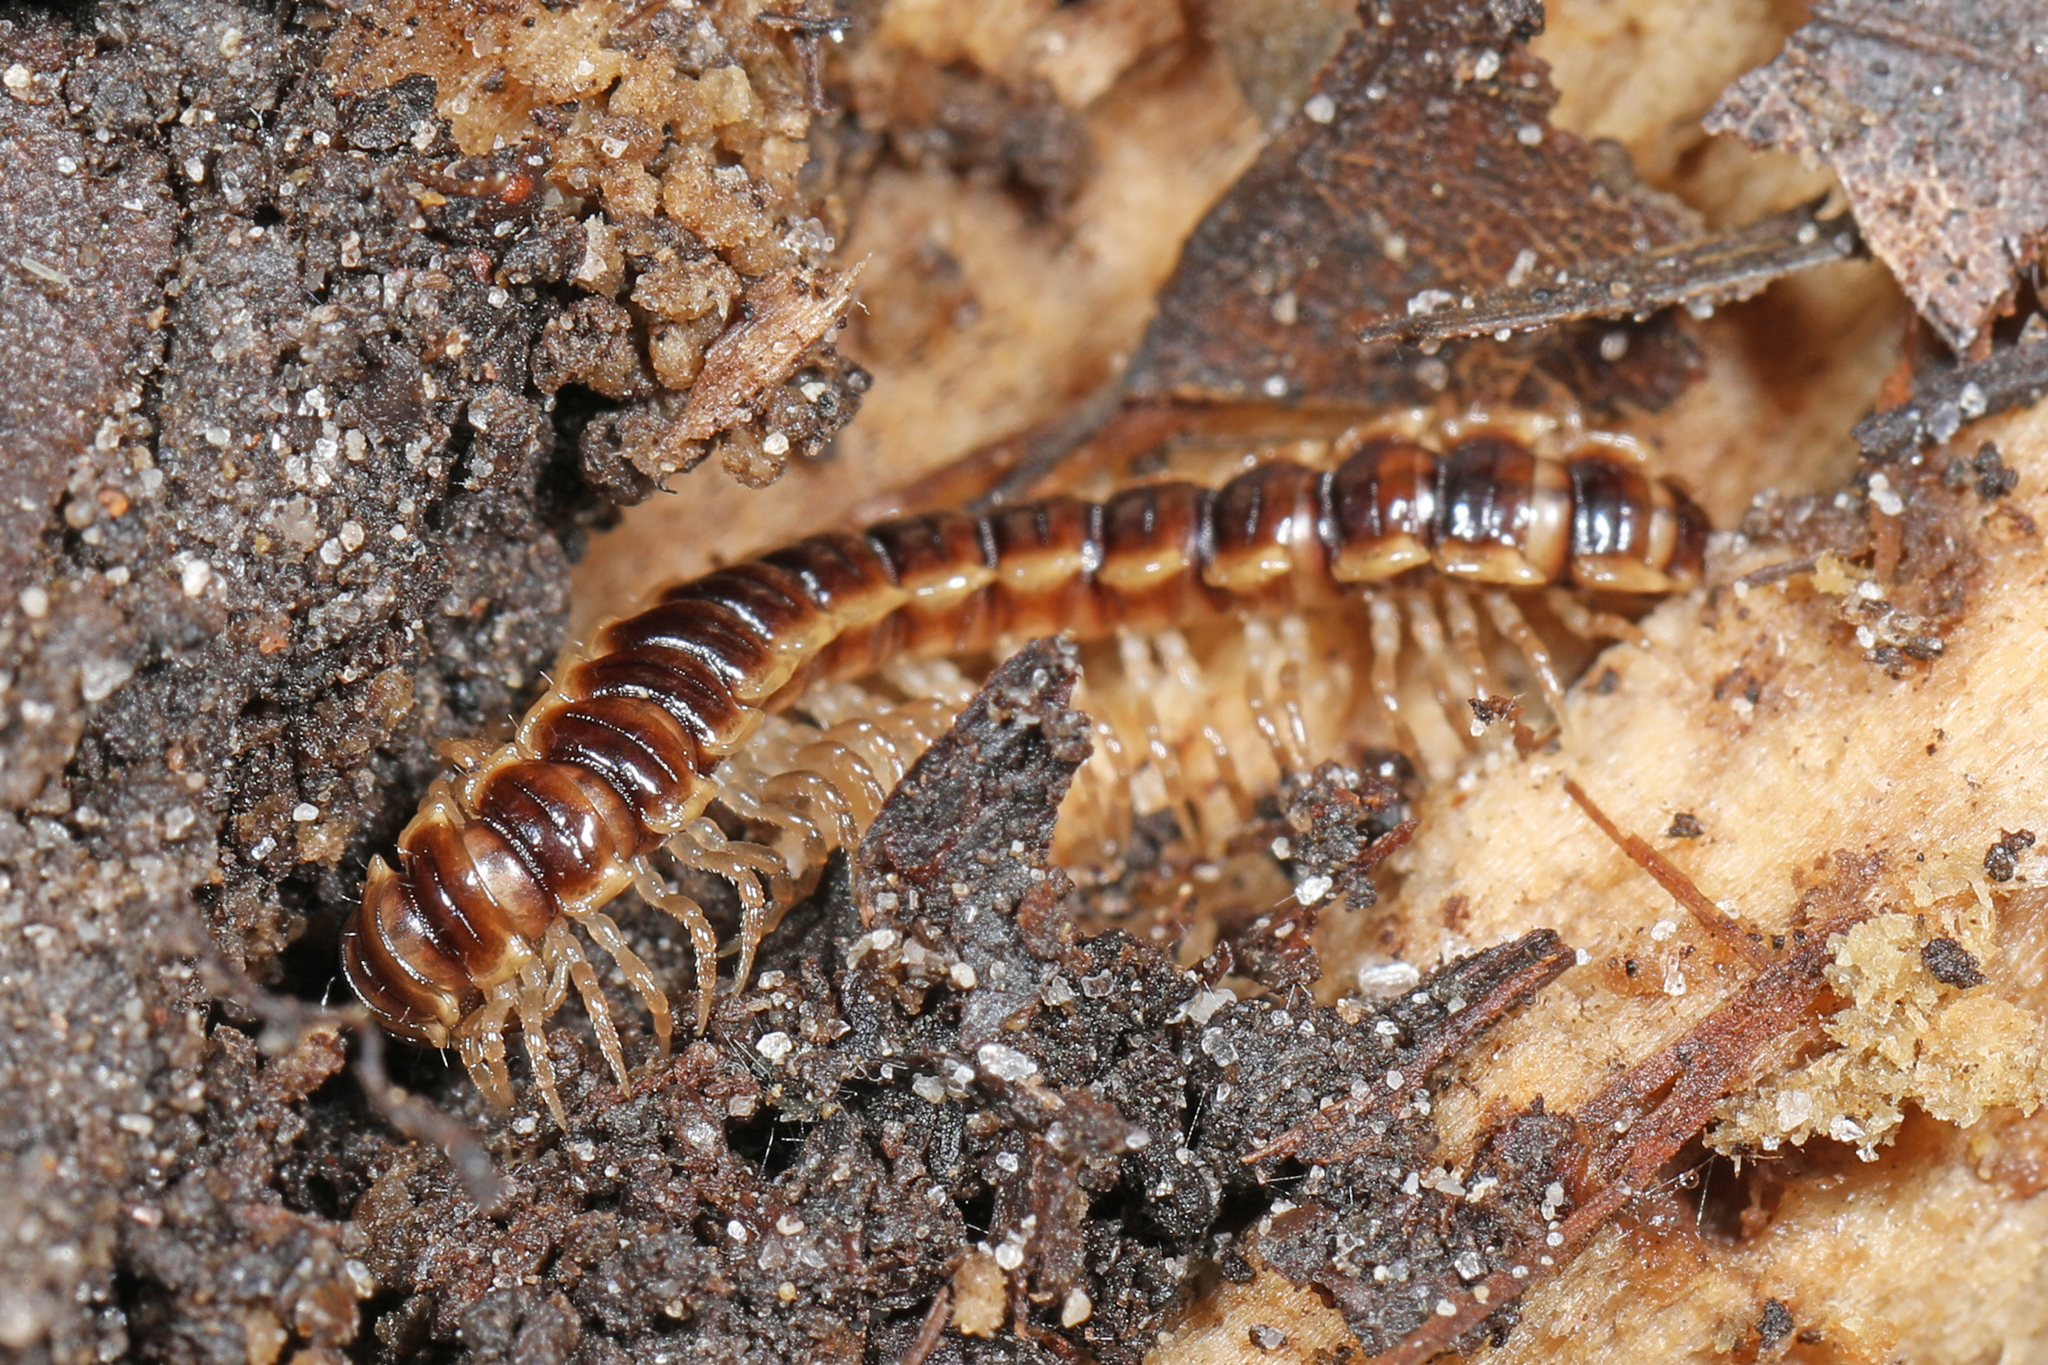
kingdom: Animalia
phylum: Arthropoda
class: Diplopoda
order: Polydesmida
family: Paradoxosomatidae
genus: Oxidus
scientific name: Oxidus gracilis
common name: Greenhouse millipede
